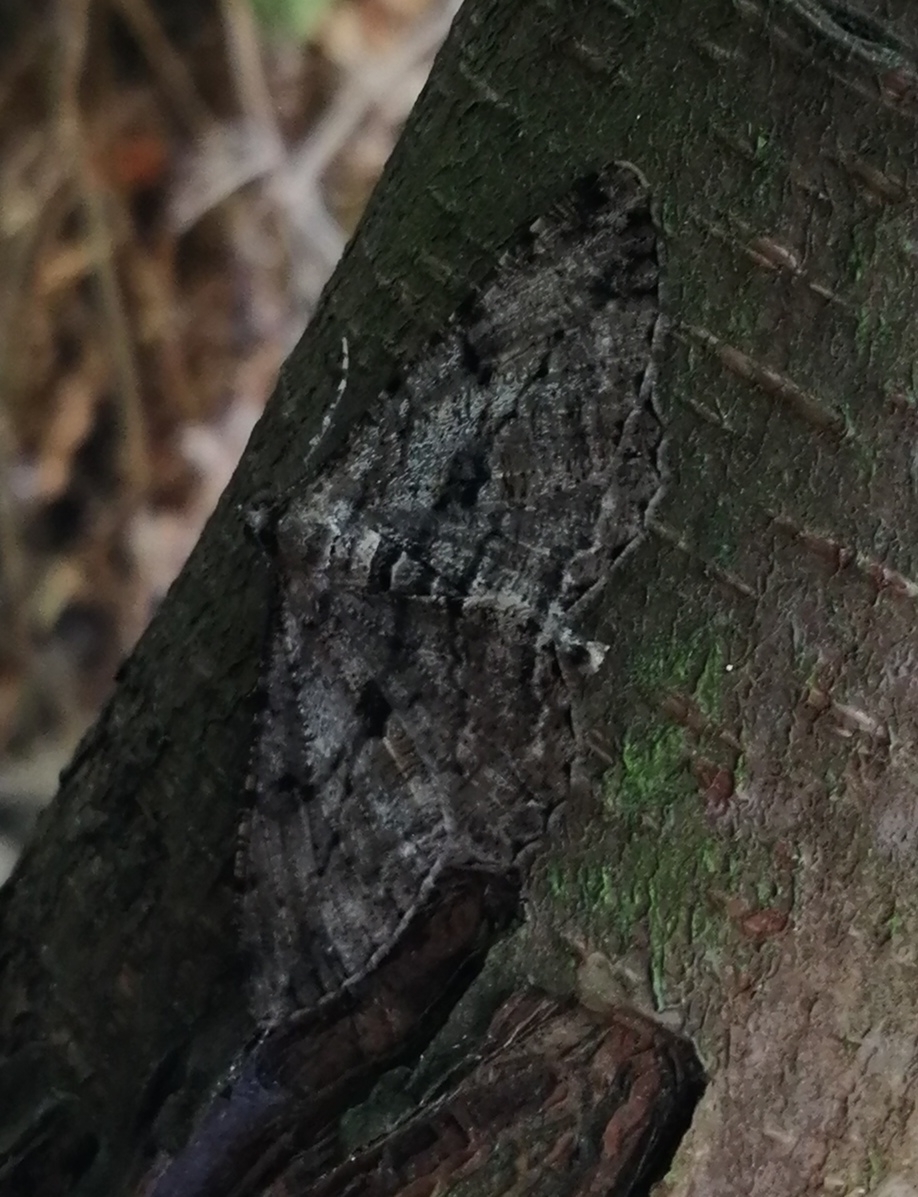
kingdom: Animalia
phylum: Arthropoda
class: Insecta
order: Lepidoptera
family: Geometridae
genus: Peribatodes
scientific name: Peribatodes rhomboidaria
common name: Willow beauty
